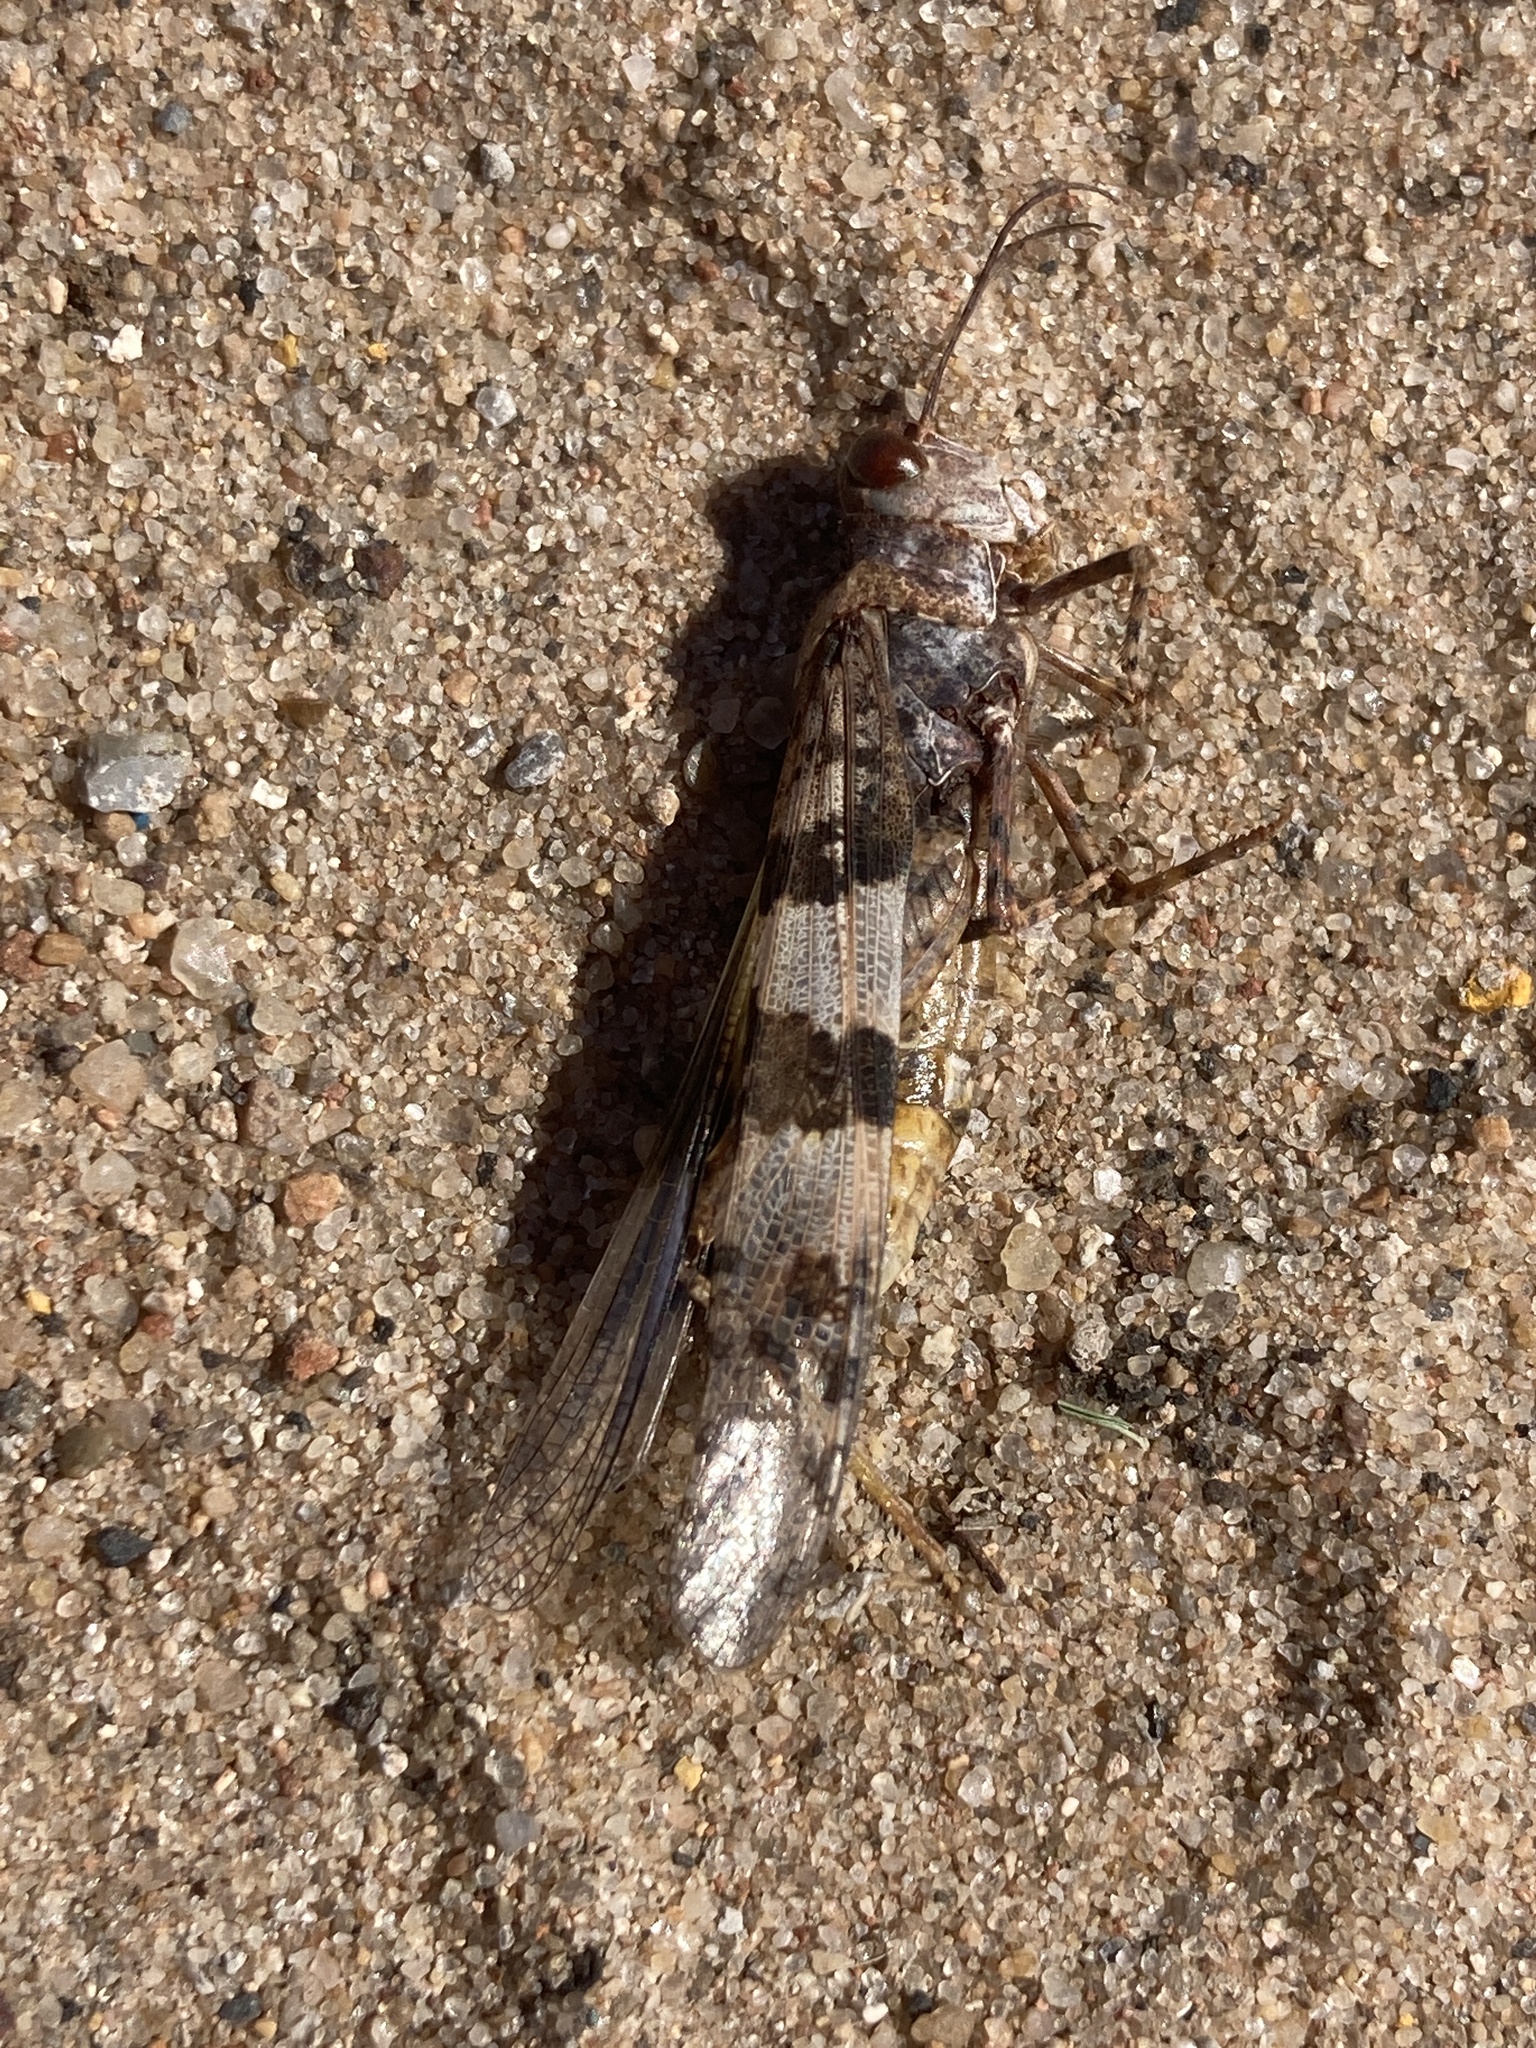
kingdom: Animalia
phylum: Arthropoda
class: Insecta
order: Orthoptera
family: Acrididae
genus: Trimerotropis
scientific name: Trimerotropis pallidipennis
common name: Pallid-winged grasshopper
